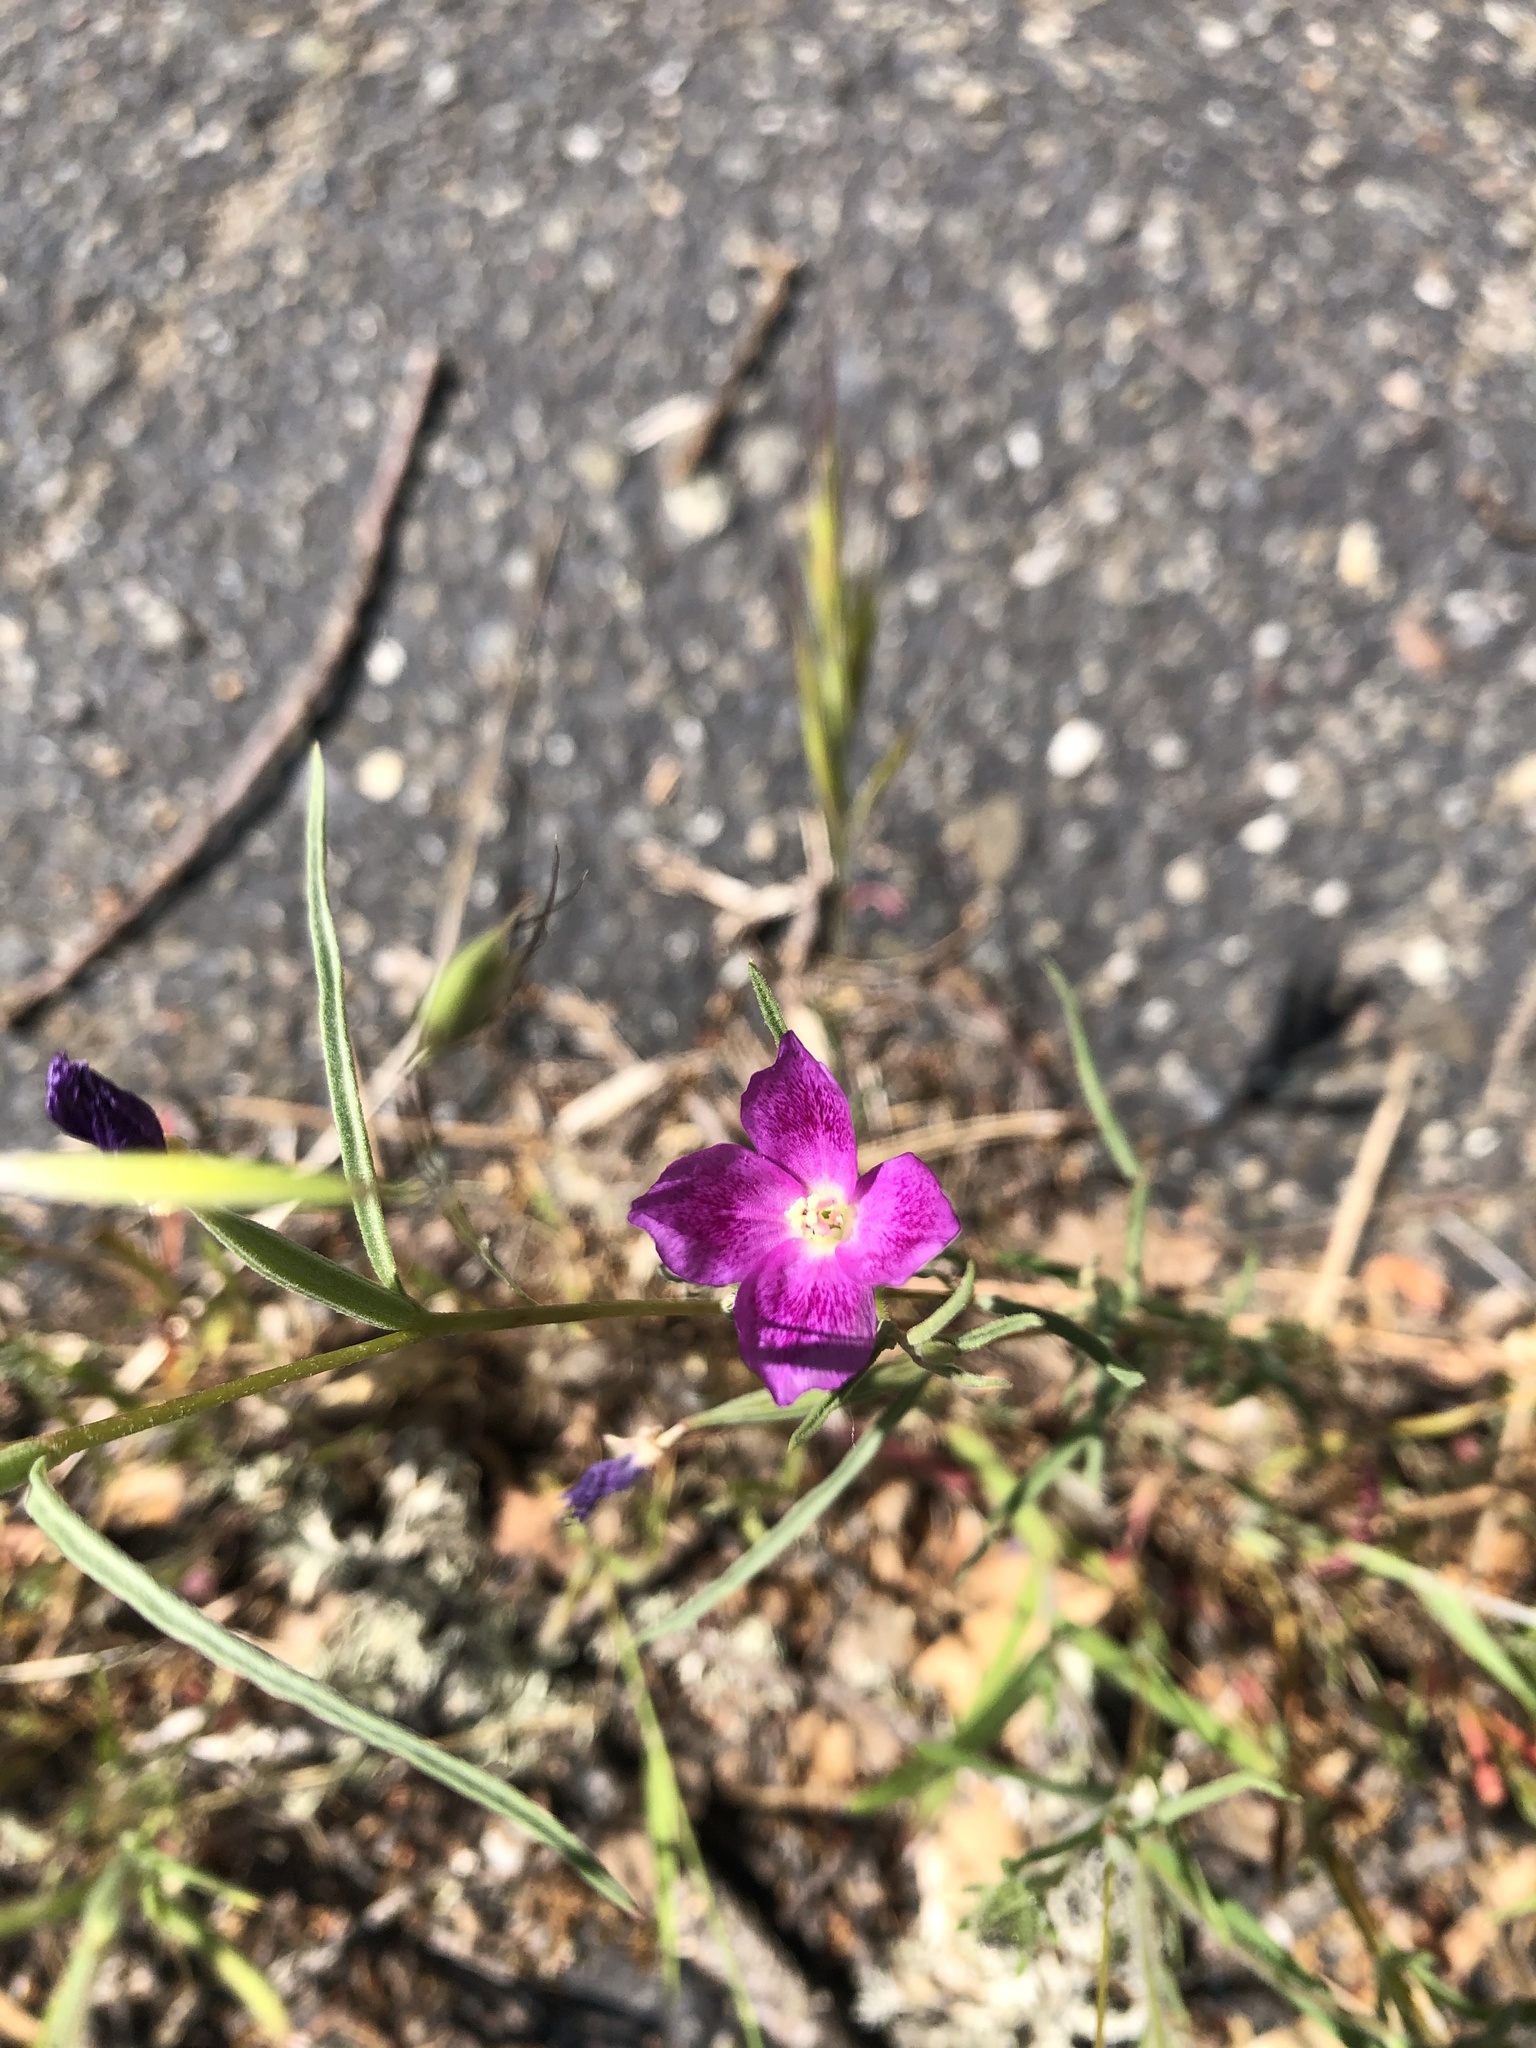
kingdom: Plantae
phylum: Tracheophyta
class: Magnoliopsida
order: Myrtales
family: Onagraceae
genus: Clarkia
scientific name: Clarkia purpurea
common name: Purple clarkia
